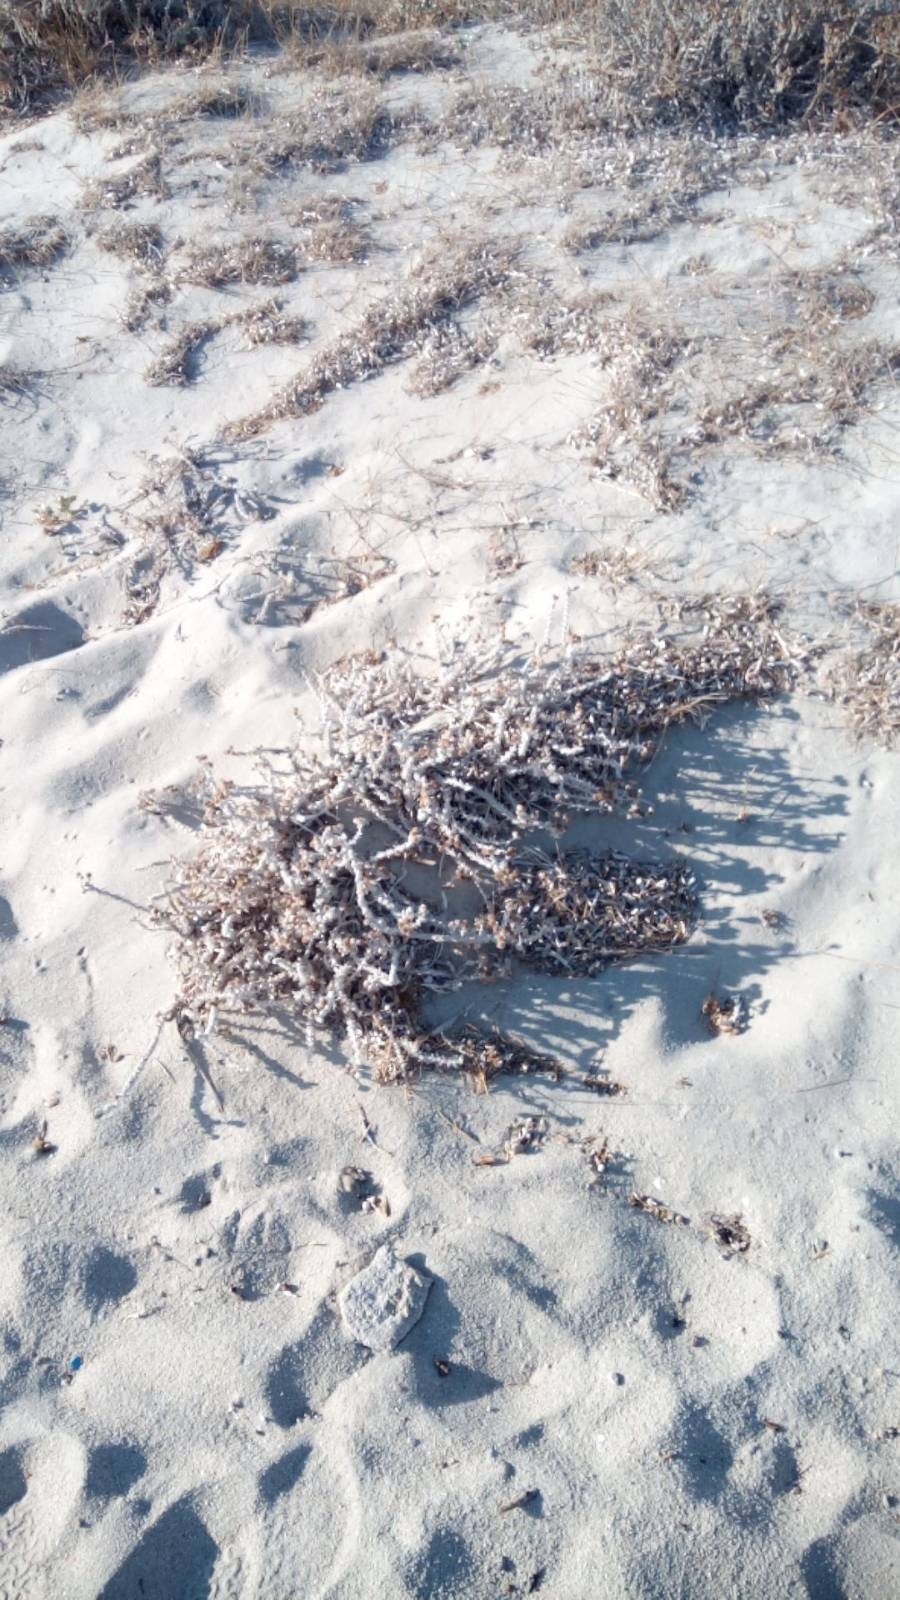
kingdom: Plantae
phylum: Tracheophyta
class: Magnoliopsida
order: Asterales
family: Asteraceae
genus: Achillea
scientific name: Achillea maritima
